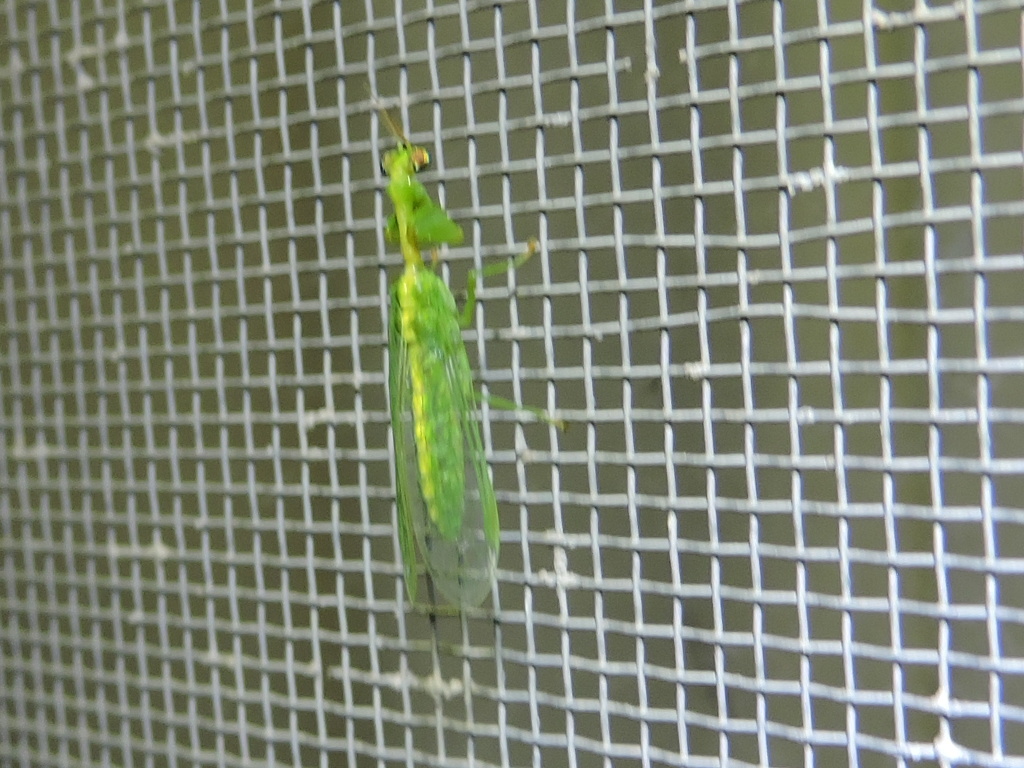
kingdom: Animalia
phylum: Arthropoda
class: Insecta
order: Neuroptera
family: Mantispidae
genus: Zeugomantispa
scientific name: Zeugomantispa minuta
